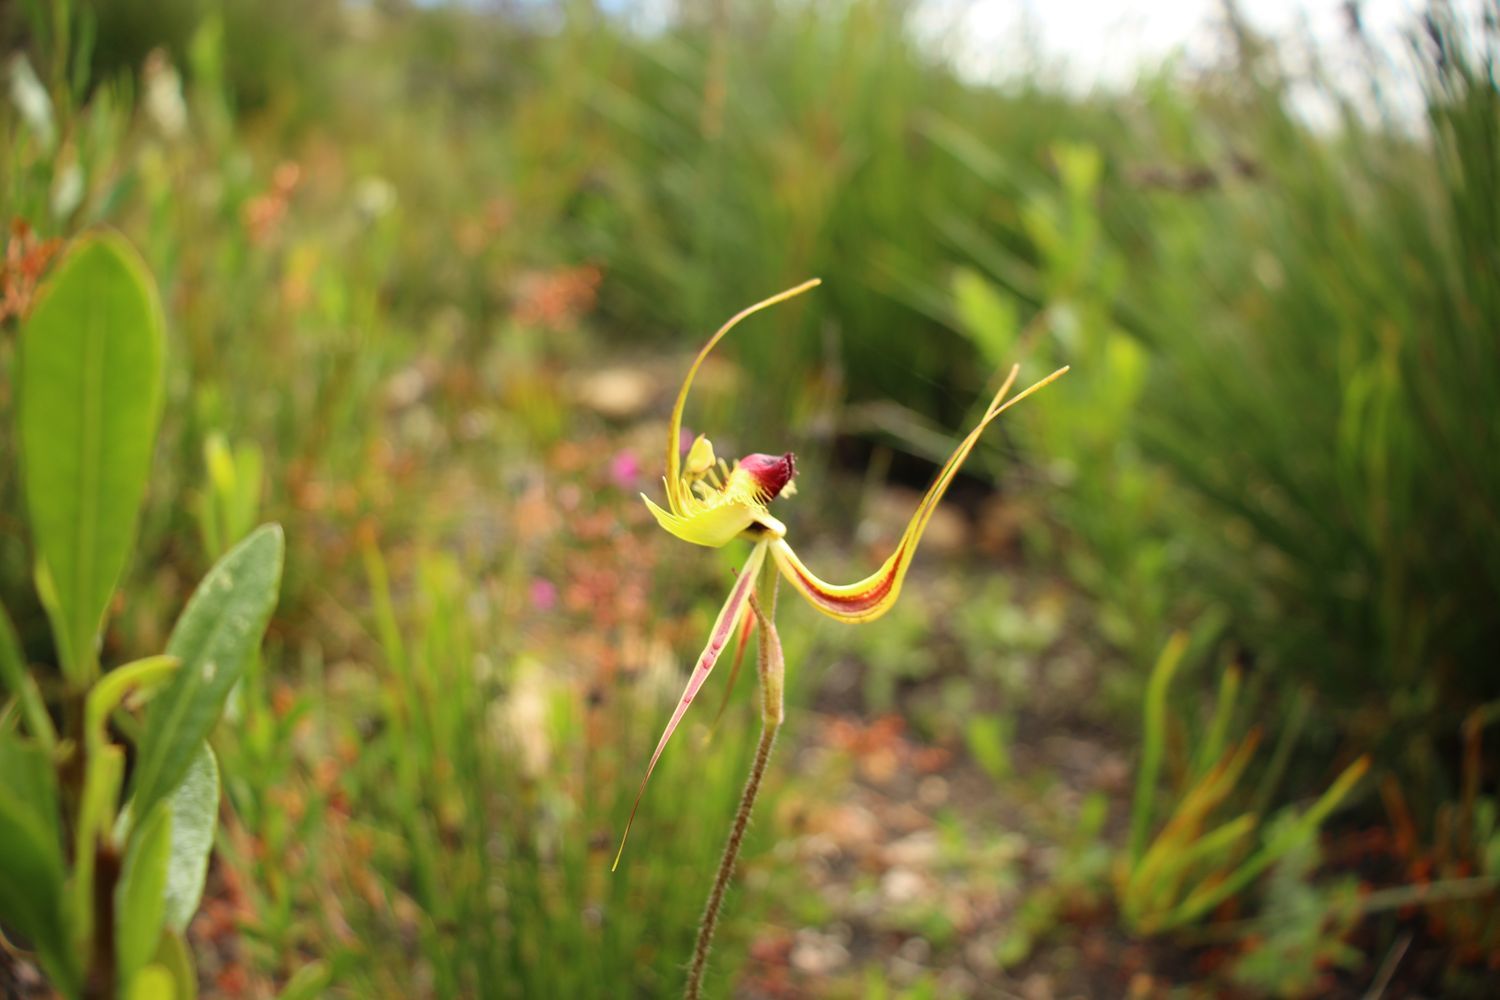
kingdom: Plantae
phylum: Tracheophyta
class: Liliopsida
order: Asparagales
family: Orchidaceae
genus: Caladenia
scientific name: Caladenia lobata
